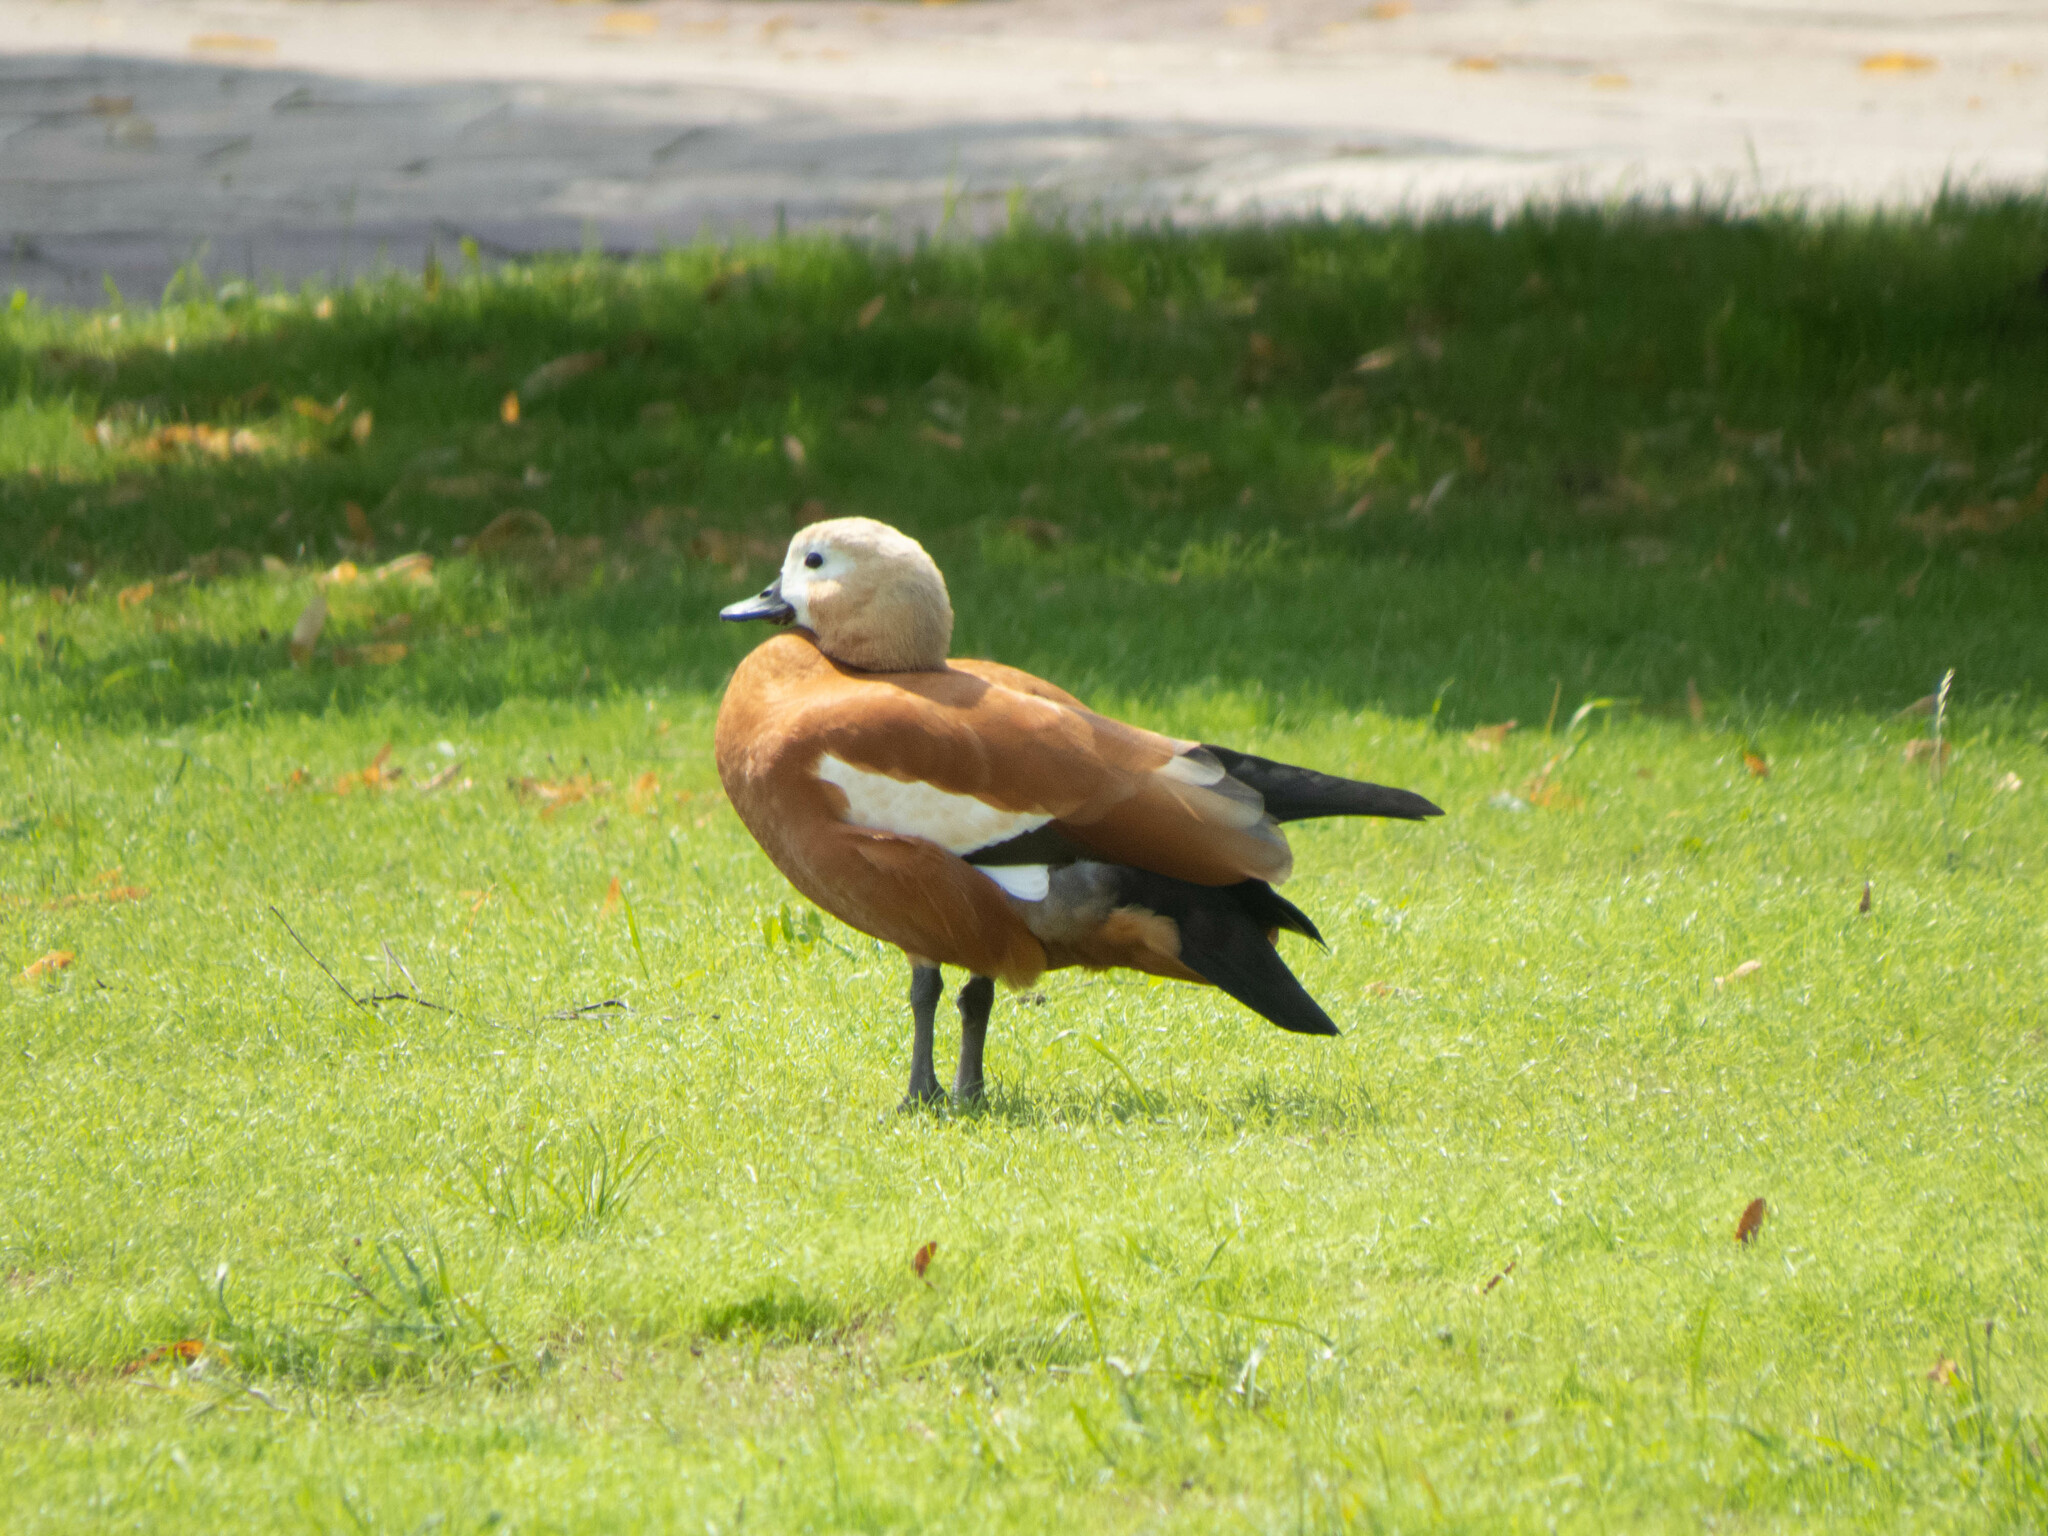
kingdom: Animalia
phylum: Chordata
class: Aves
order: Anseriformes
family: Anatidae
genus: Tadorna
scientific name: Tadorna ferruginea
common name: Ruddy shelduck
